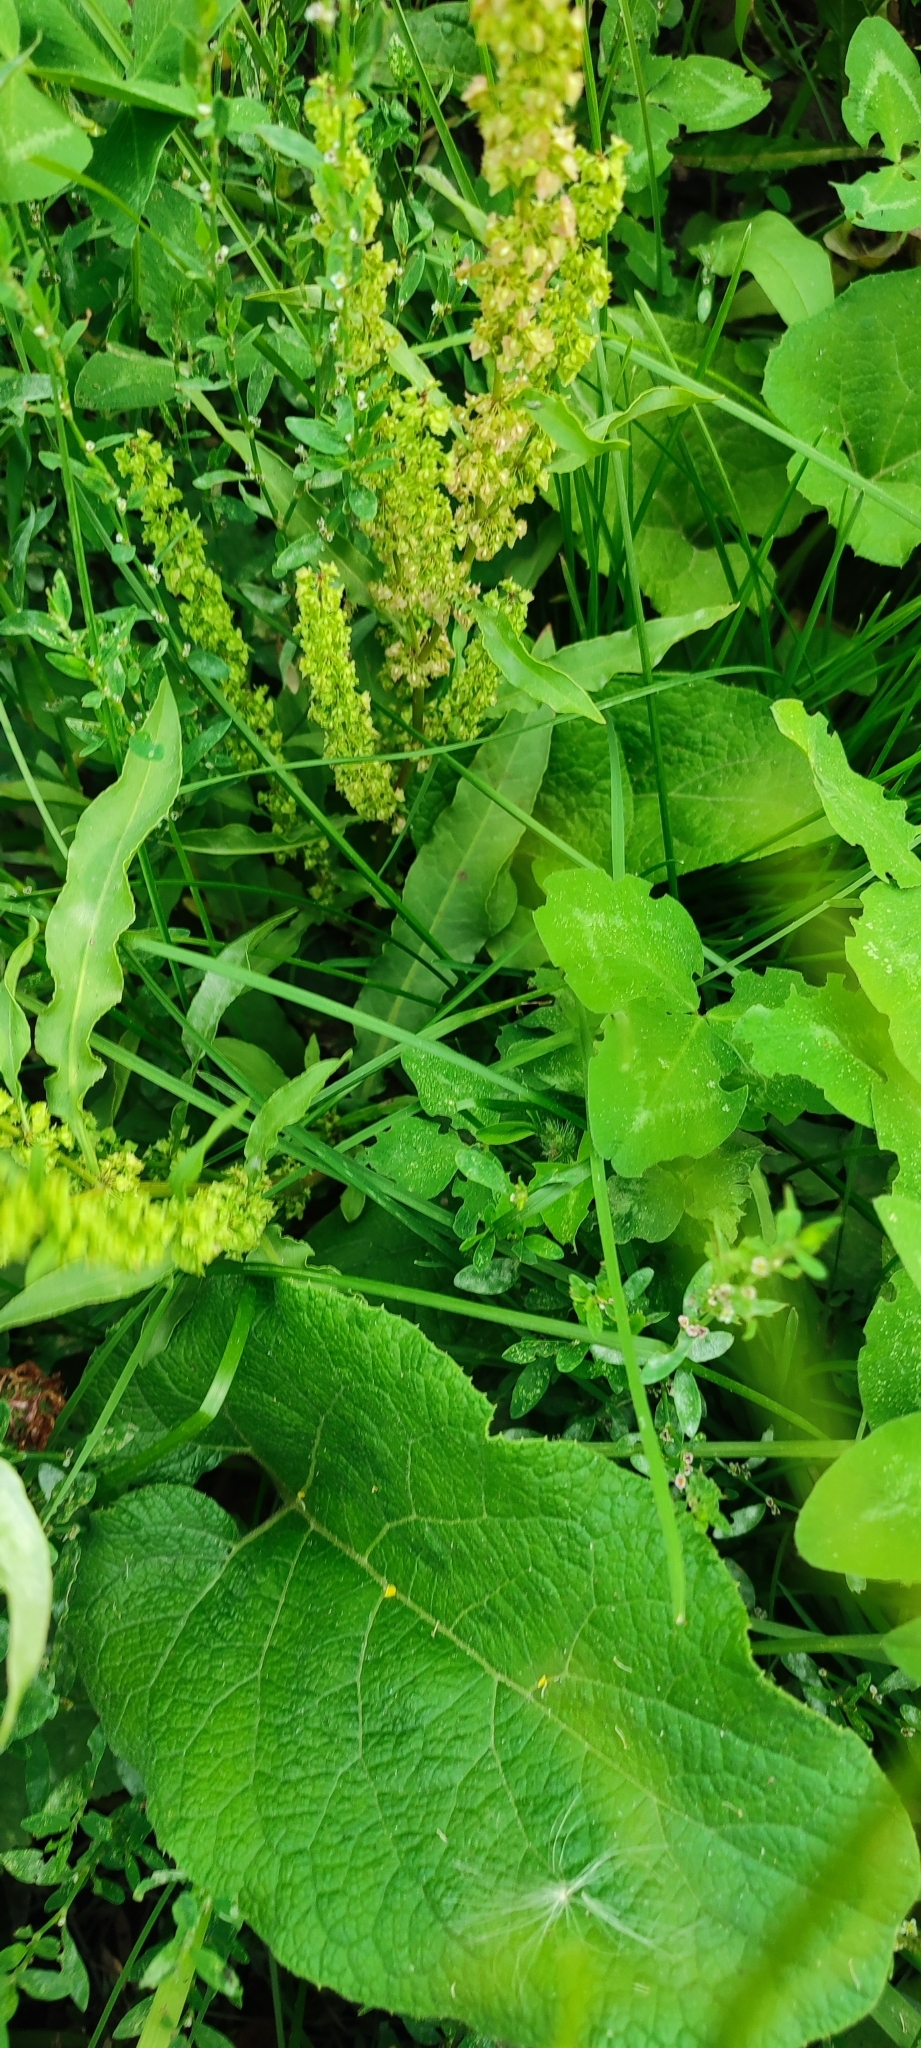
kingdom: Plantae
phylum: Tracheophyta
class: Magnoliopsida
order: Caryophyllales
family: Polygonaceae
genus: Rumex
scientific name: Rumex stenophyllus
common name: Narrowleaf dock
